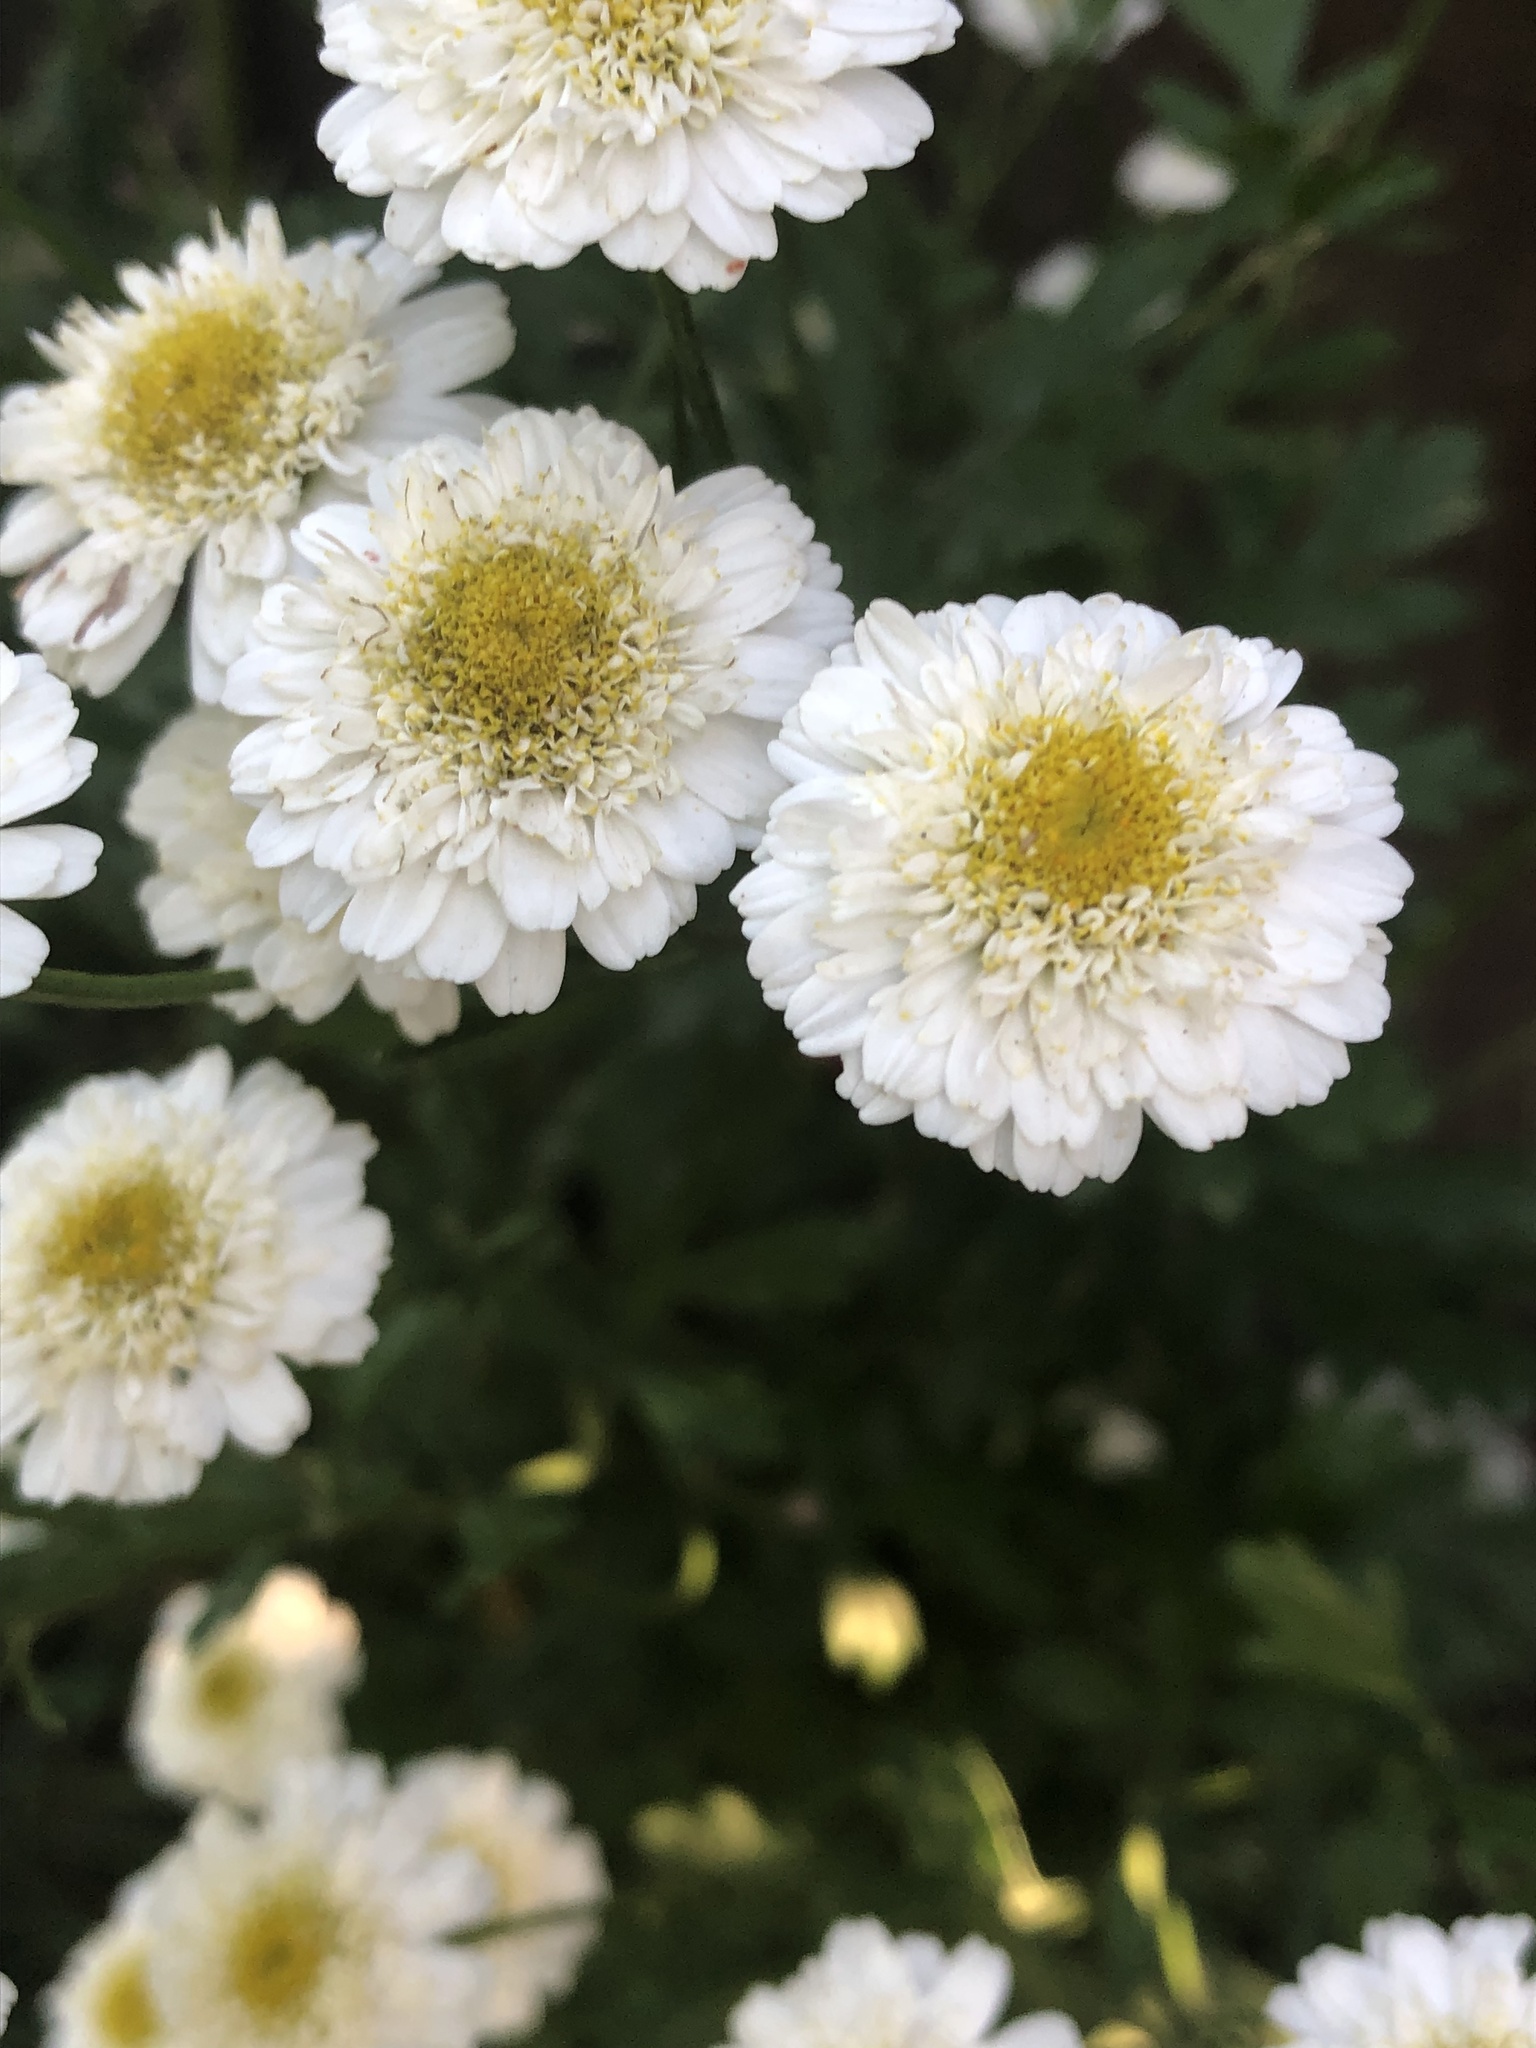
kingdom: Plantae
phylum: Tracheophyta
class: Magnoliopsida
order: Asterales
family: Asteraceae
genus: Tanacetum
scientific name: Tanacetum parthenium
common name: Feverfew
